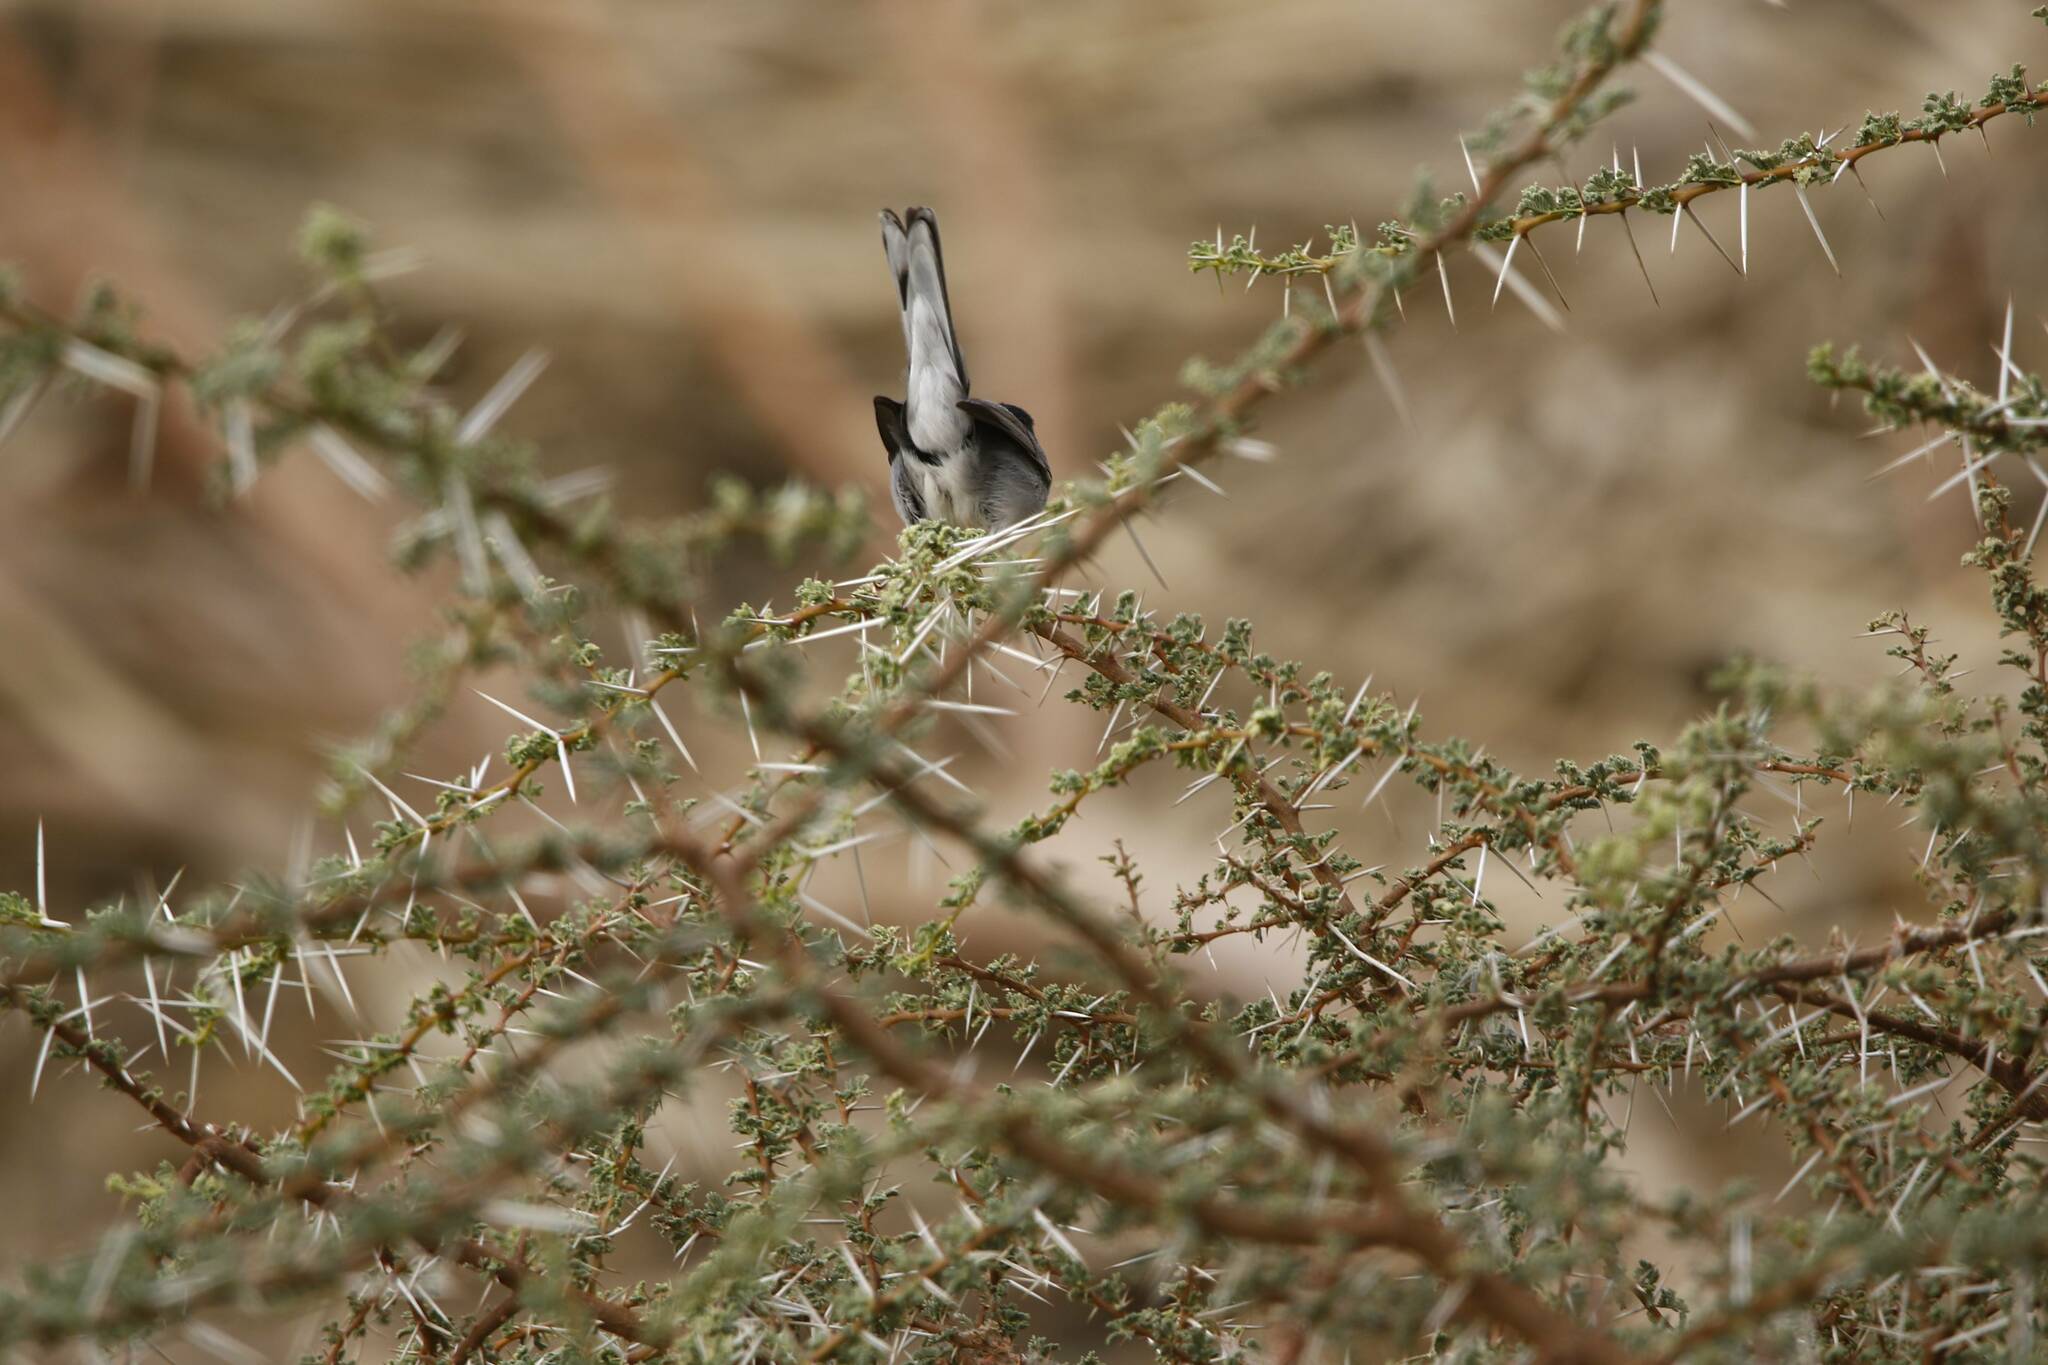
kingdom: Animalia
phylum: Chordata
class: Aves
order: Passeriformes
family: Sylviidae
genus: Curruca
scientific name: Curruca melanocephala
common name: Sardinian warbler
